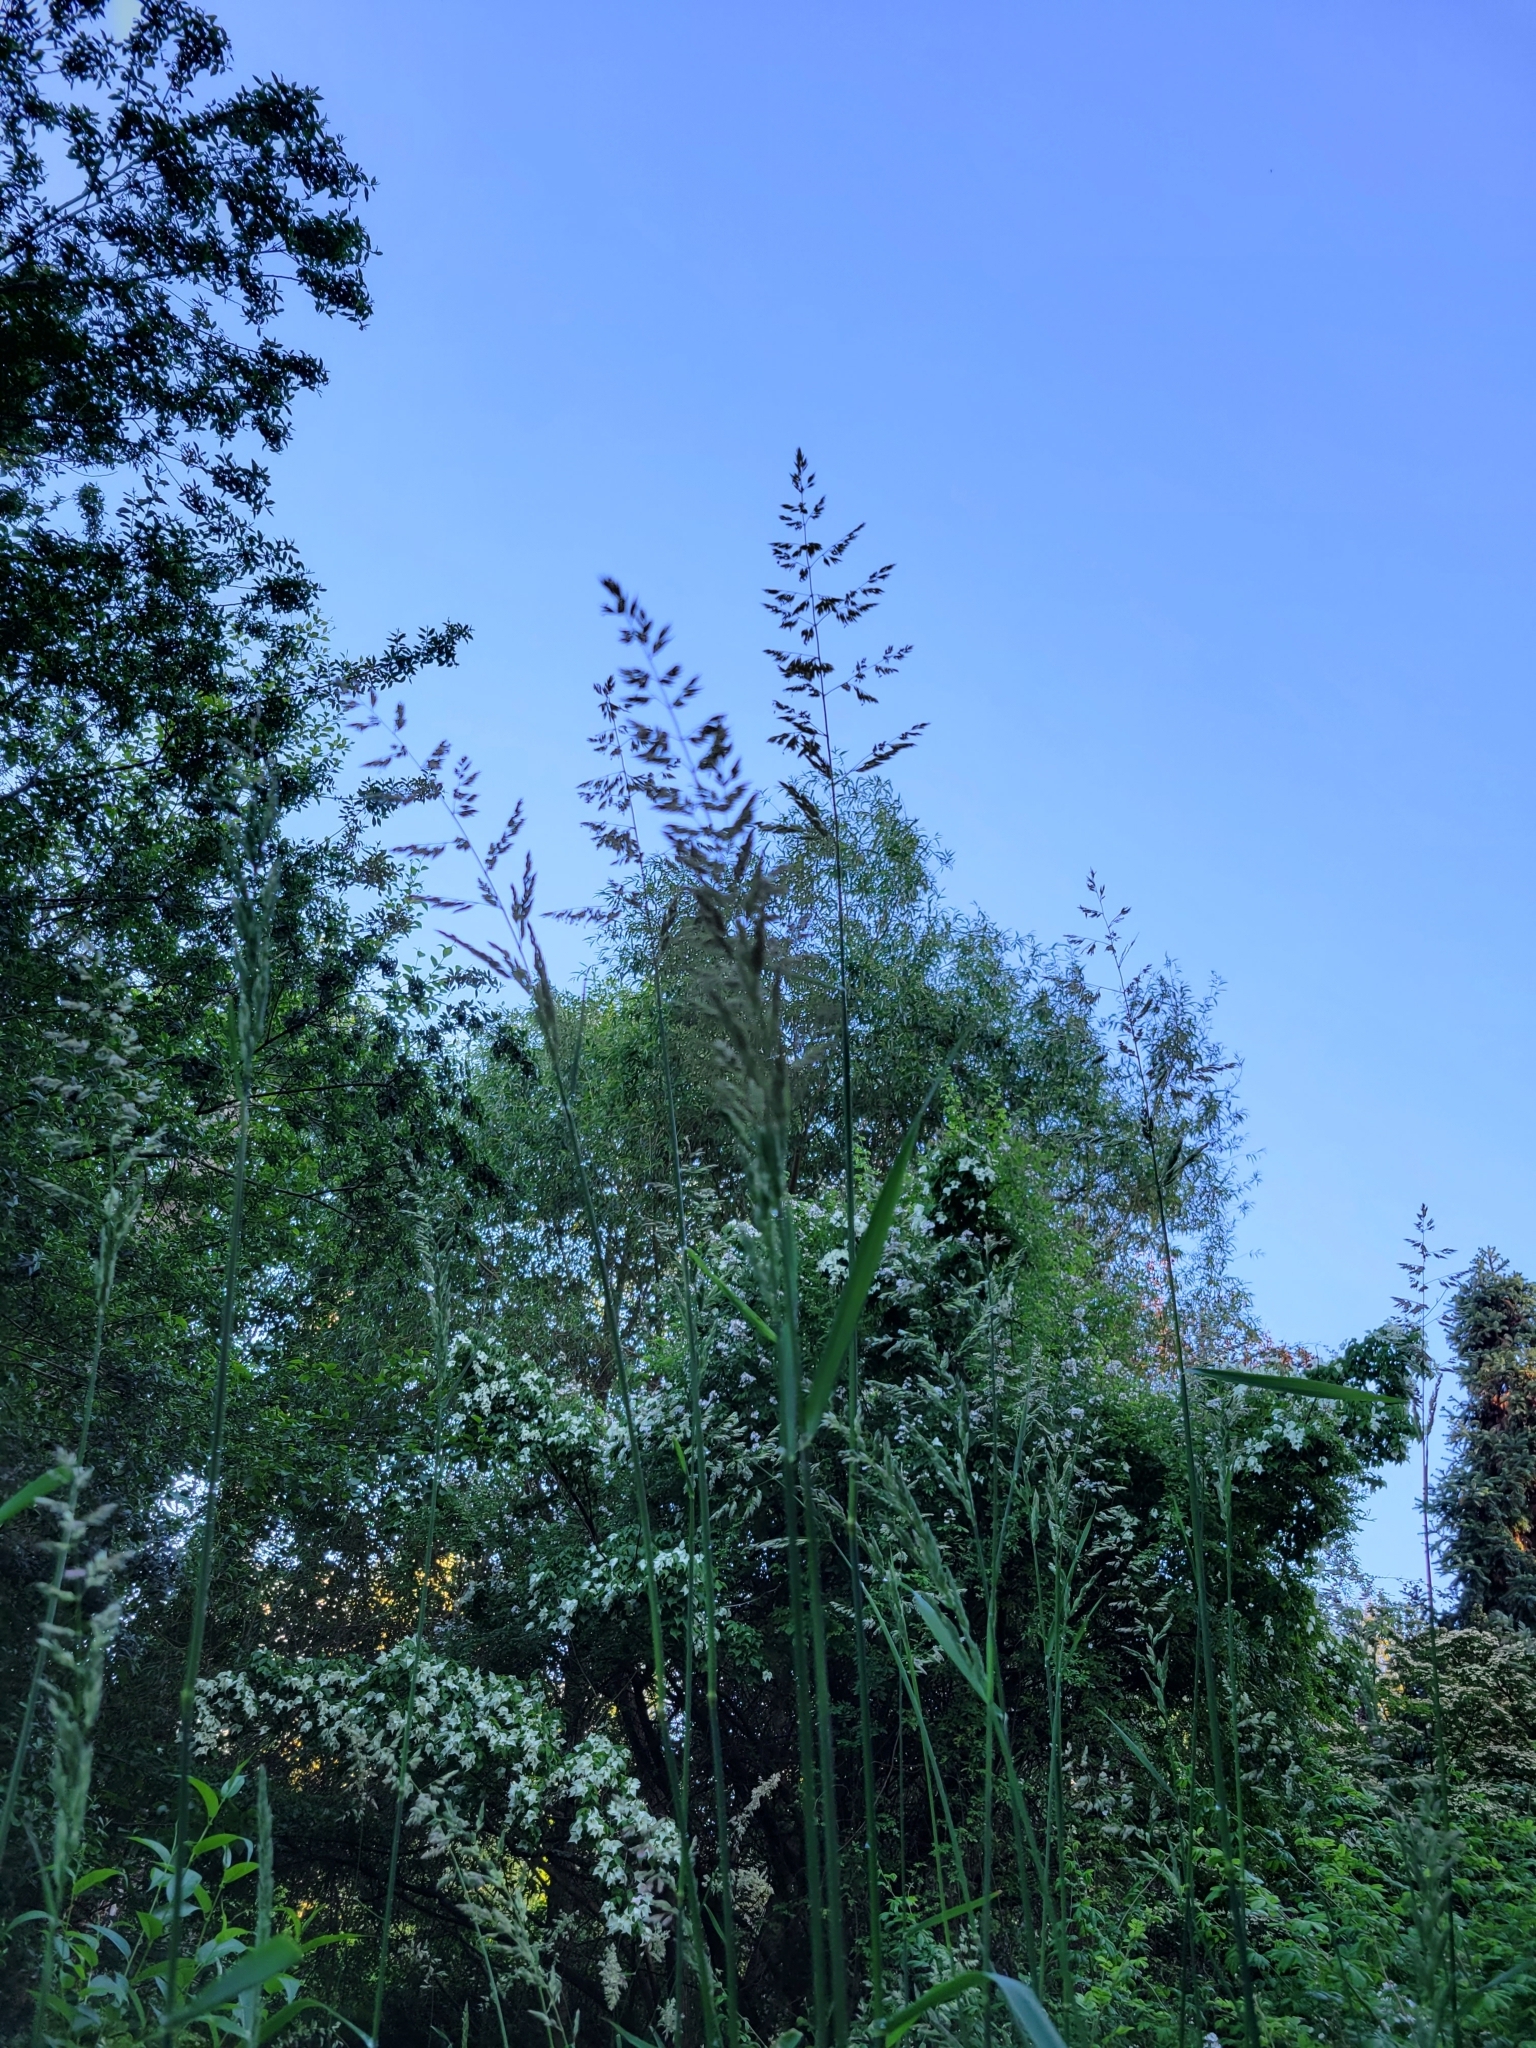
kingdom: Plantae
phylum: Tracheophyta
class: Liliopsida
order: Poales
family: Poaceae
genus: Phalaris
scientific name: Phalaris arundinacea
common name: Reed canary-grass
